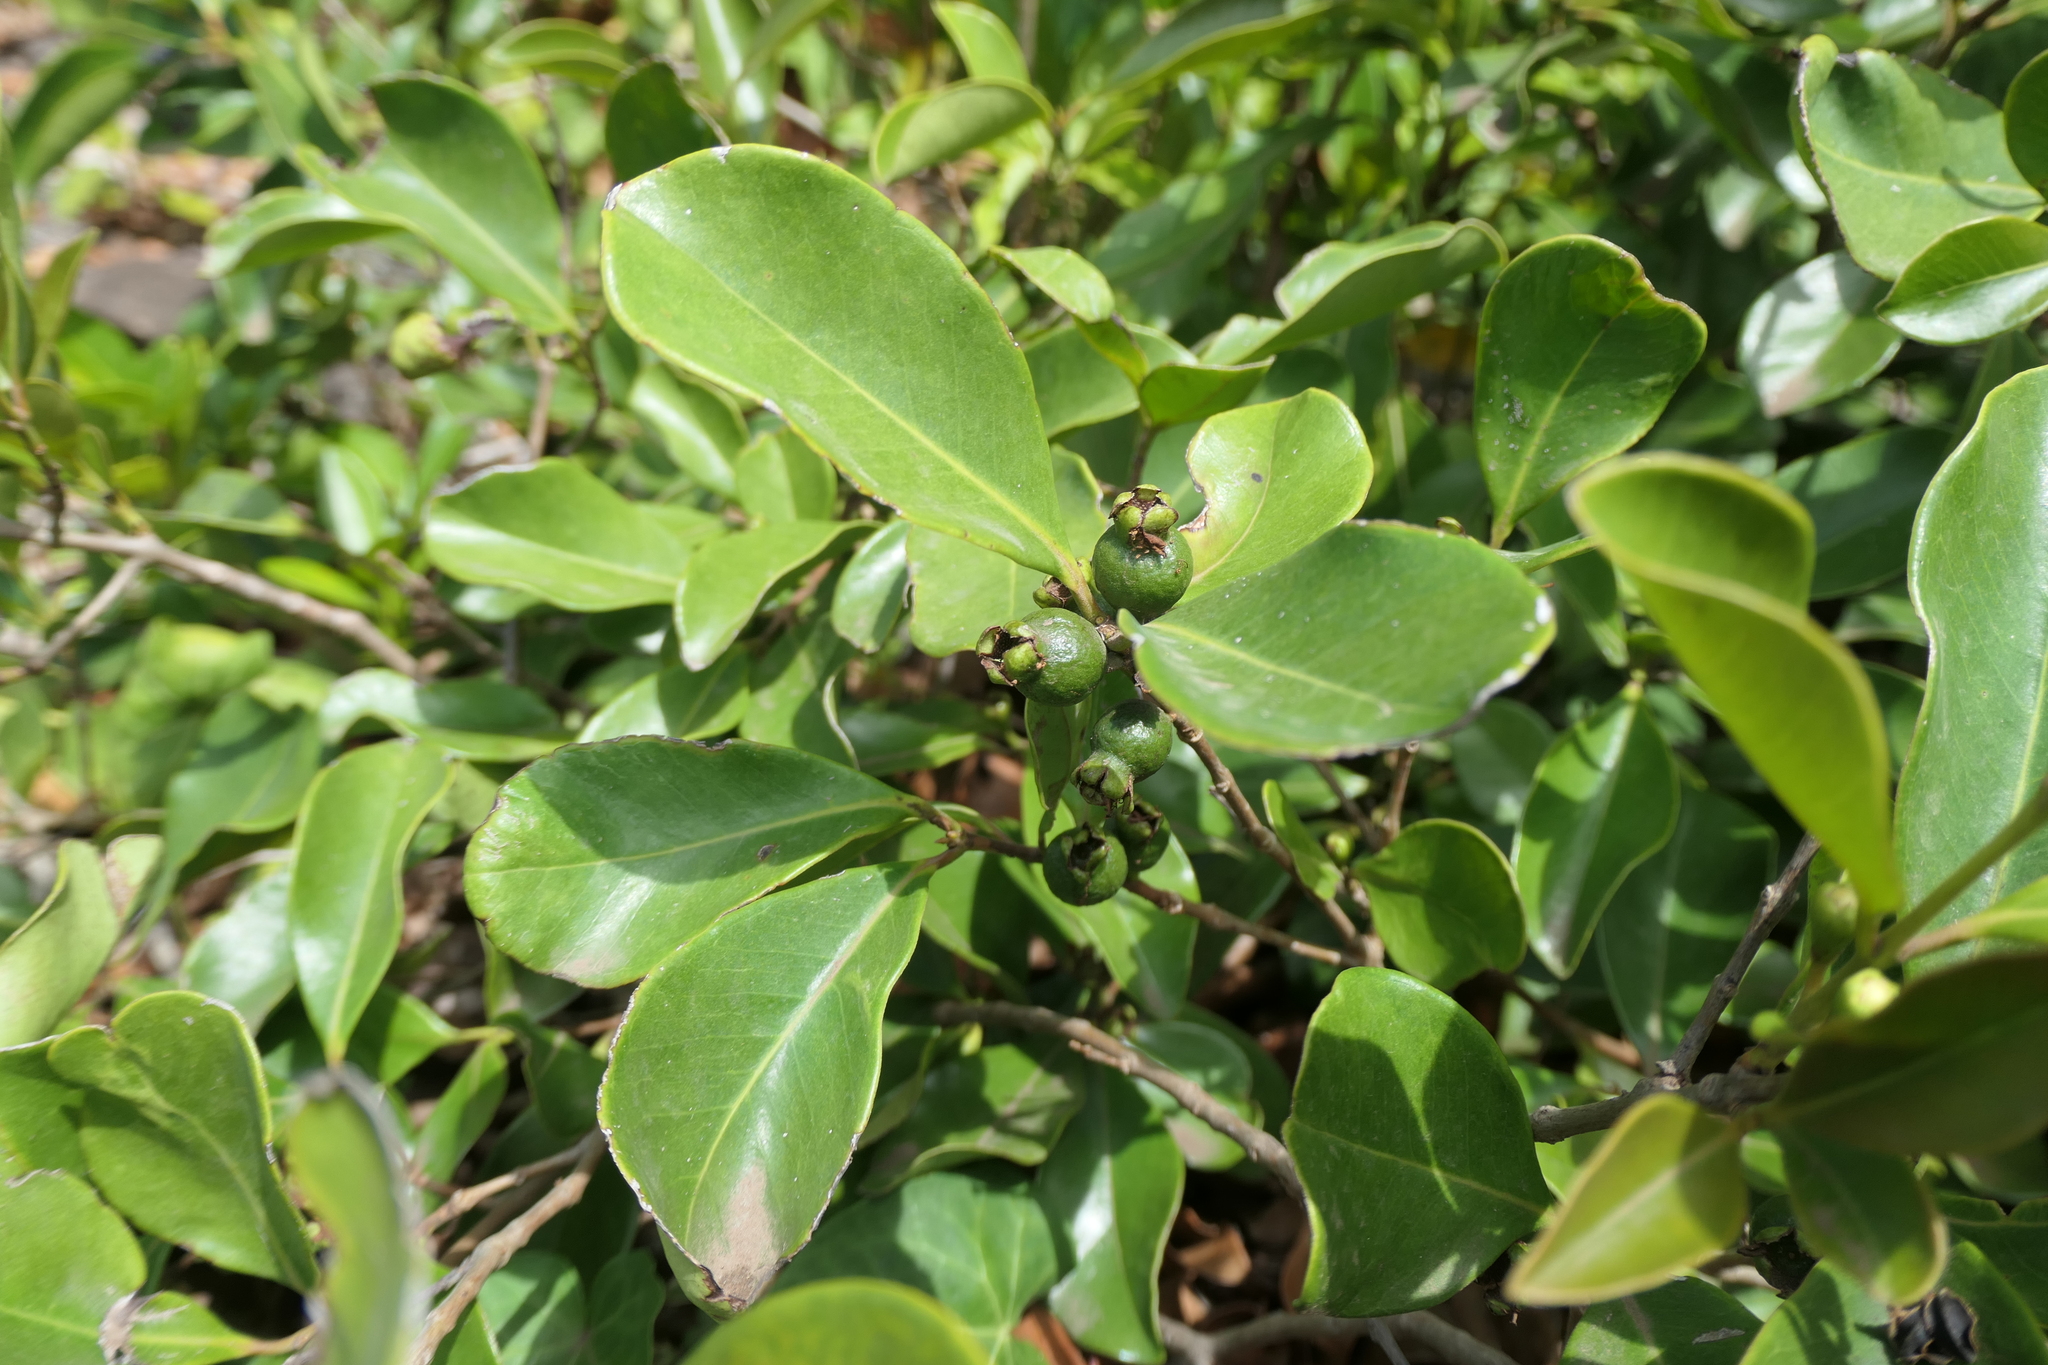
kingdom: Plantae
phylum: Tracheophyta
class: Magnoliopsida
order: Myrtales
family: Myrtaceae
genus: Psidium
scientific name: Psidium cattleianum
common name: Strawberry guava
